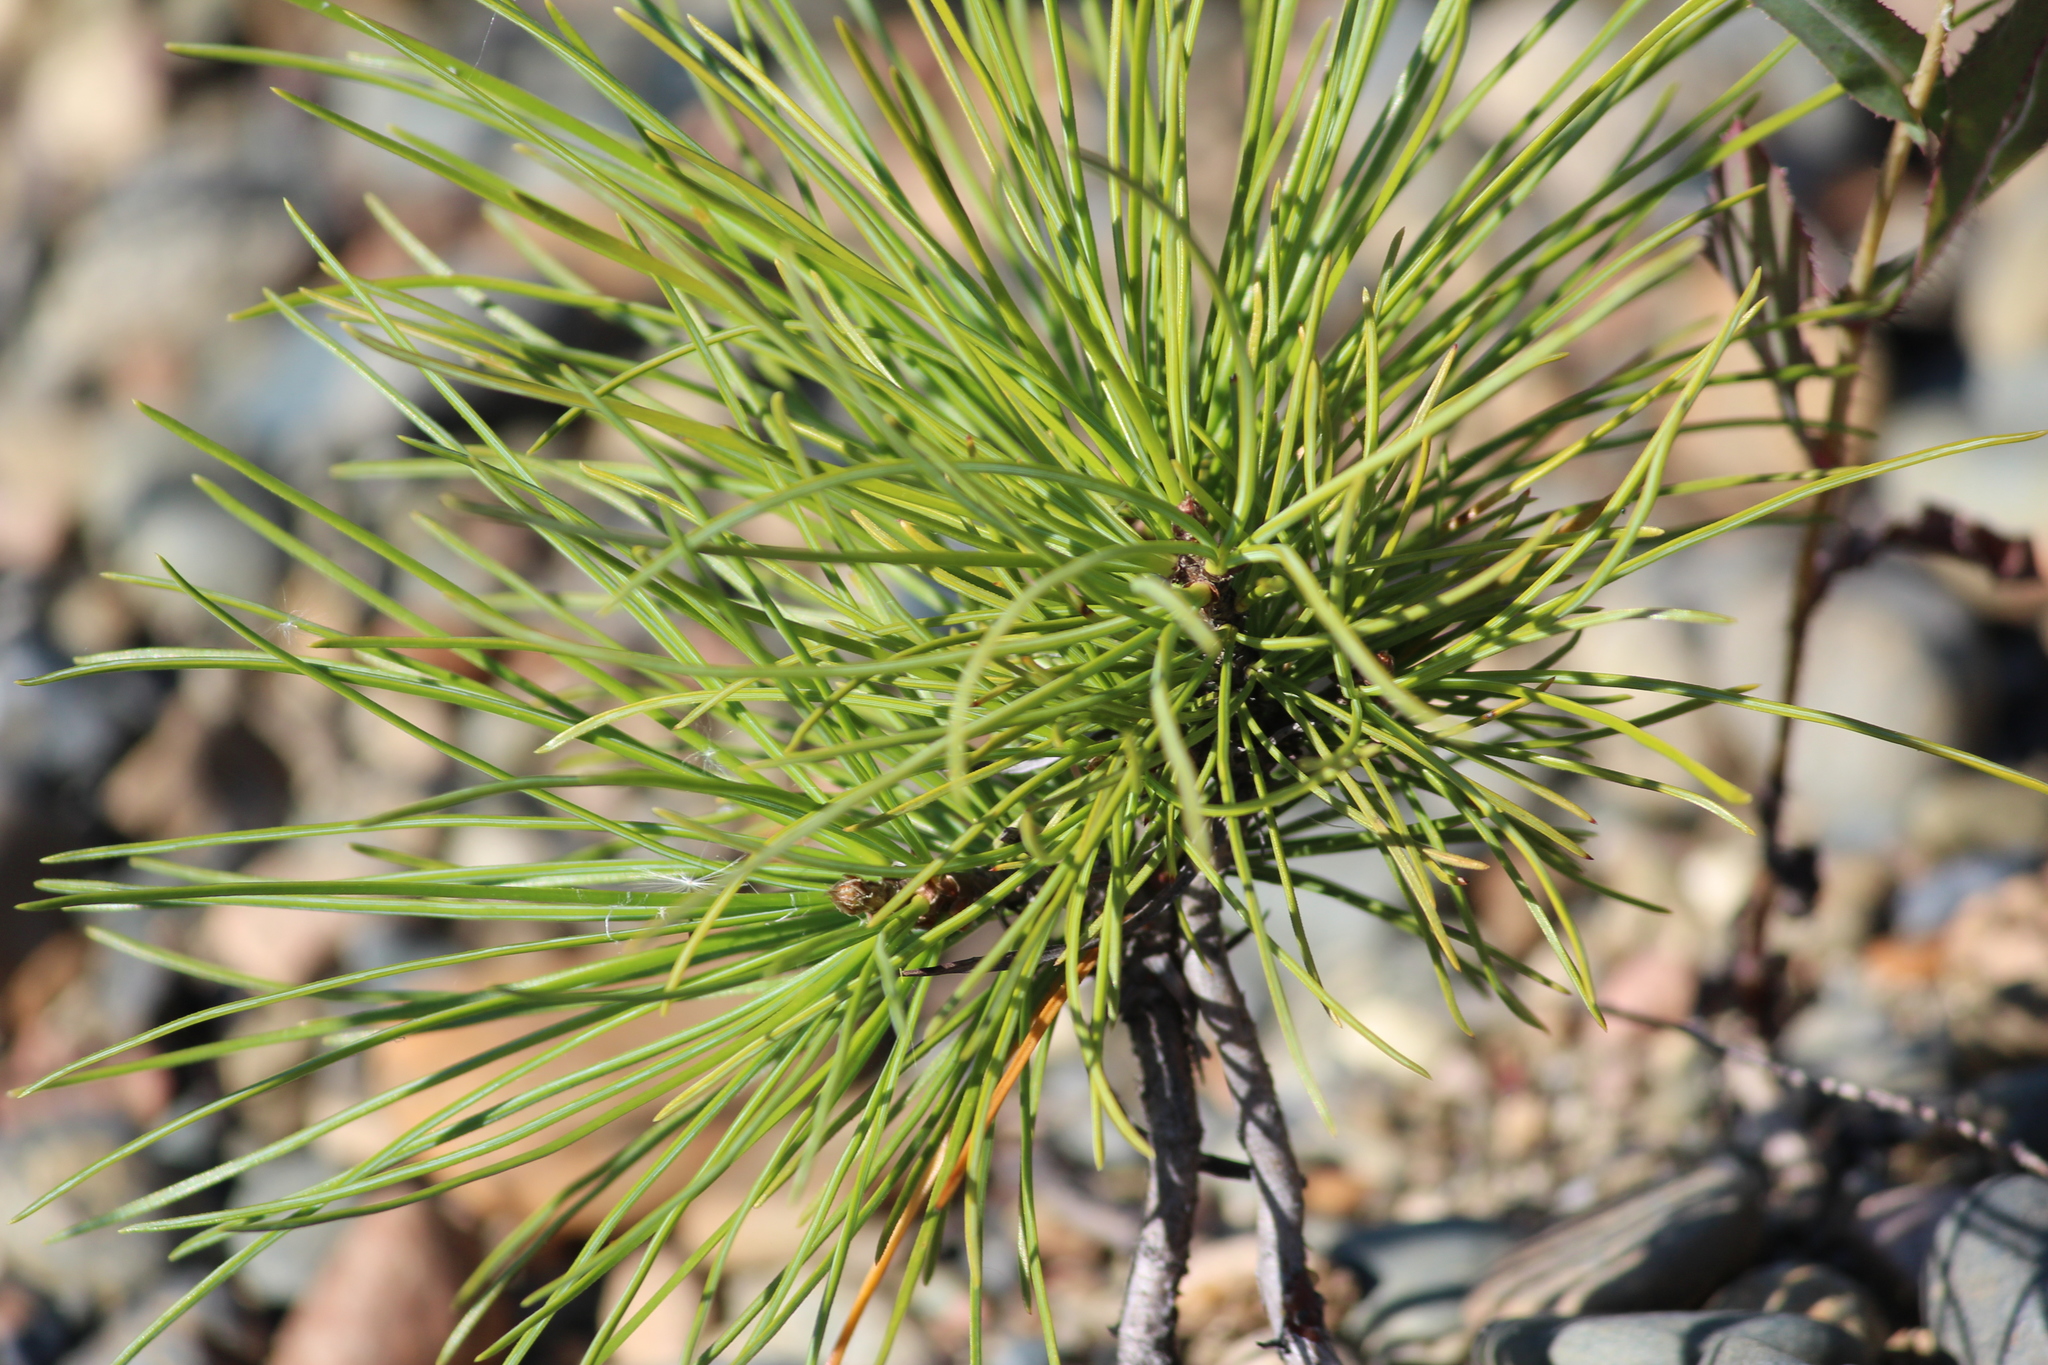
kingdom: Plantae
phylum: Tracheophyta
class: Pinopsida
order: Pinales
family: Pinaceae
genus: Pinus
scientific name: Pinus sibirica
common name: Siberian pine
